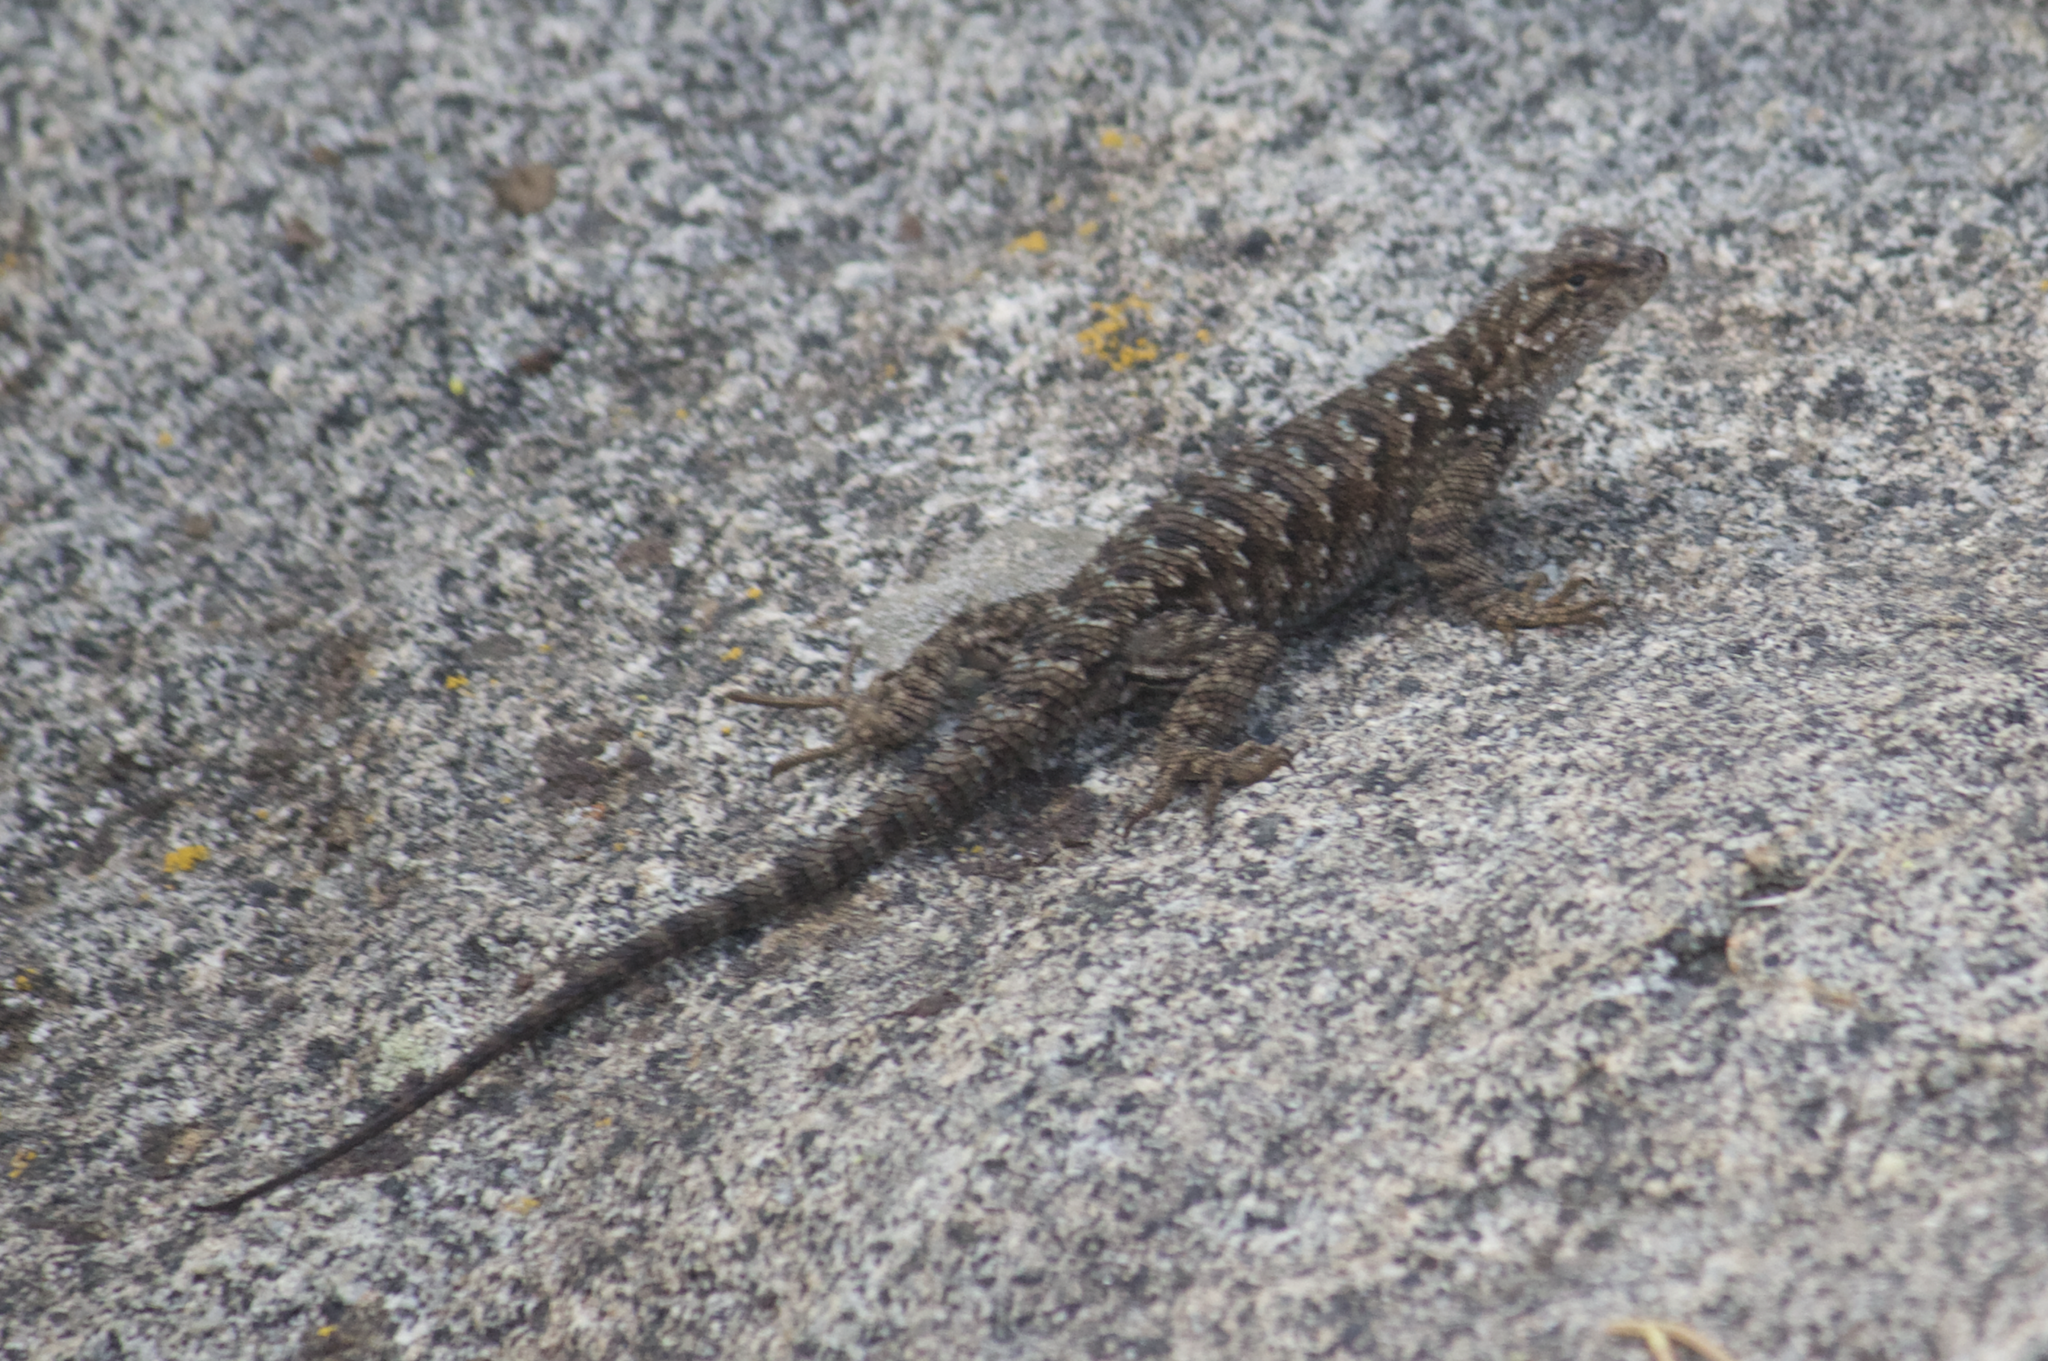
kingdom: Animalia
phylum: Chordata
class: Squamata
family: Phrynosomatidae
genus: Sceloporus
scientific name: Sceloporus occidentalis
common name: Western fence lizard
